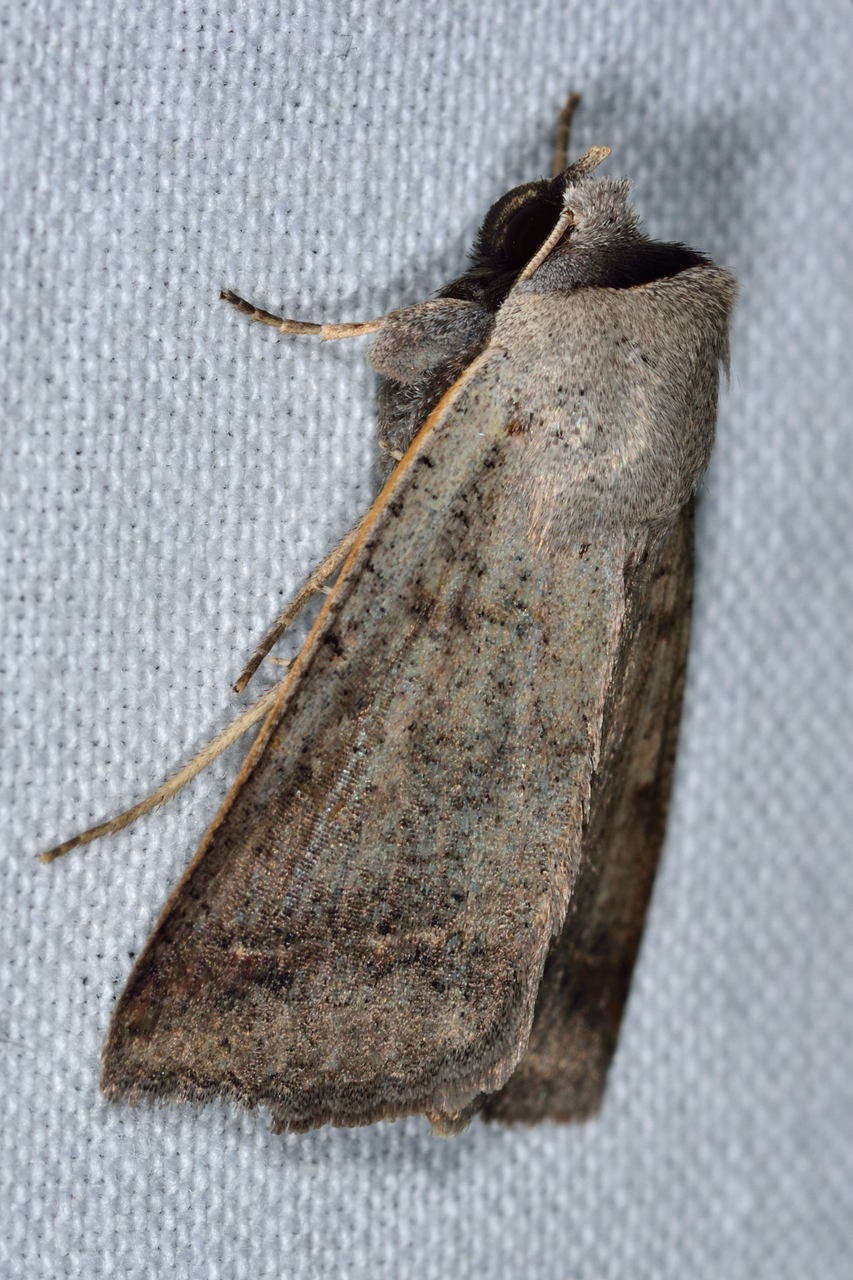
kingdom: Animalia
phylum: Arthropoda
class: Insecta
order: Lepidoptera
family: Erebidae
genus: Pantydia
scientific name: Pantydia diemeni
